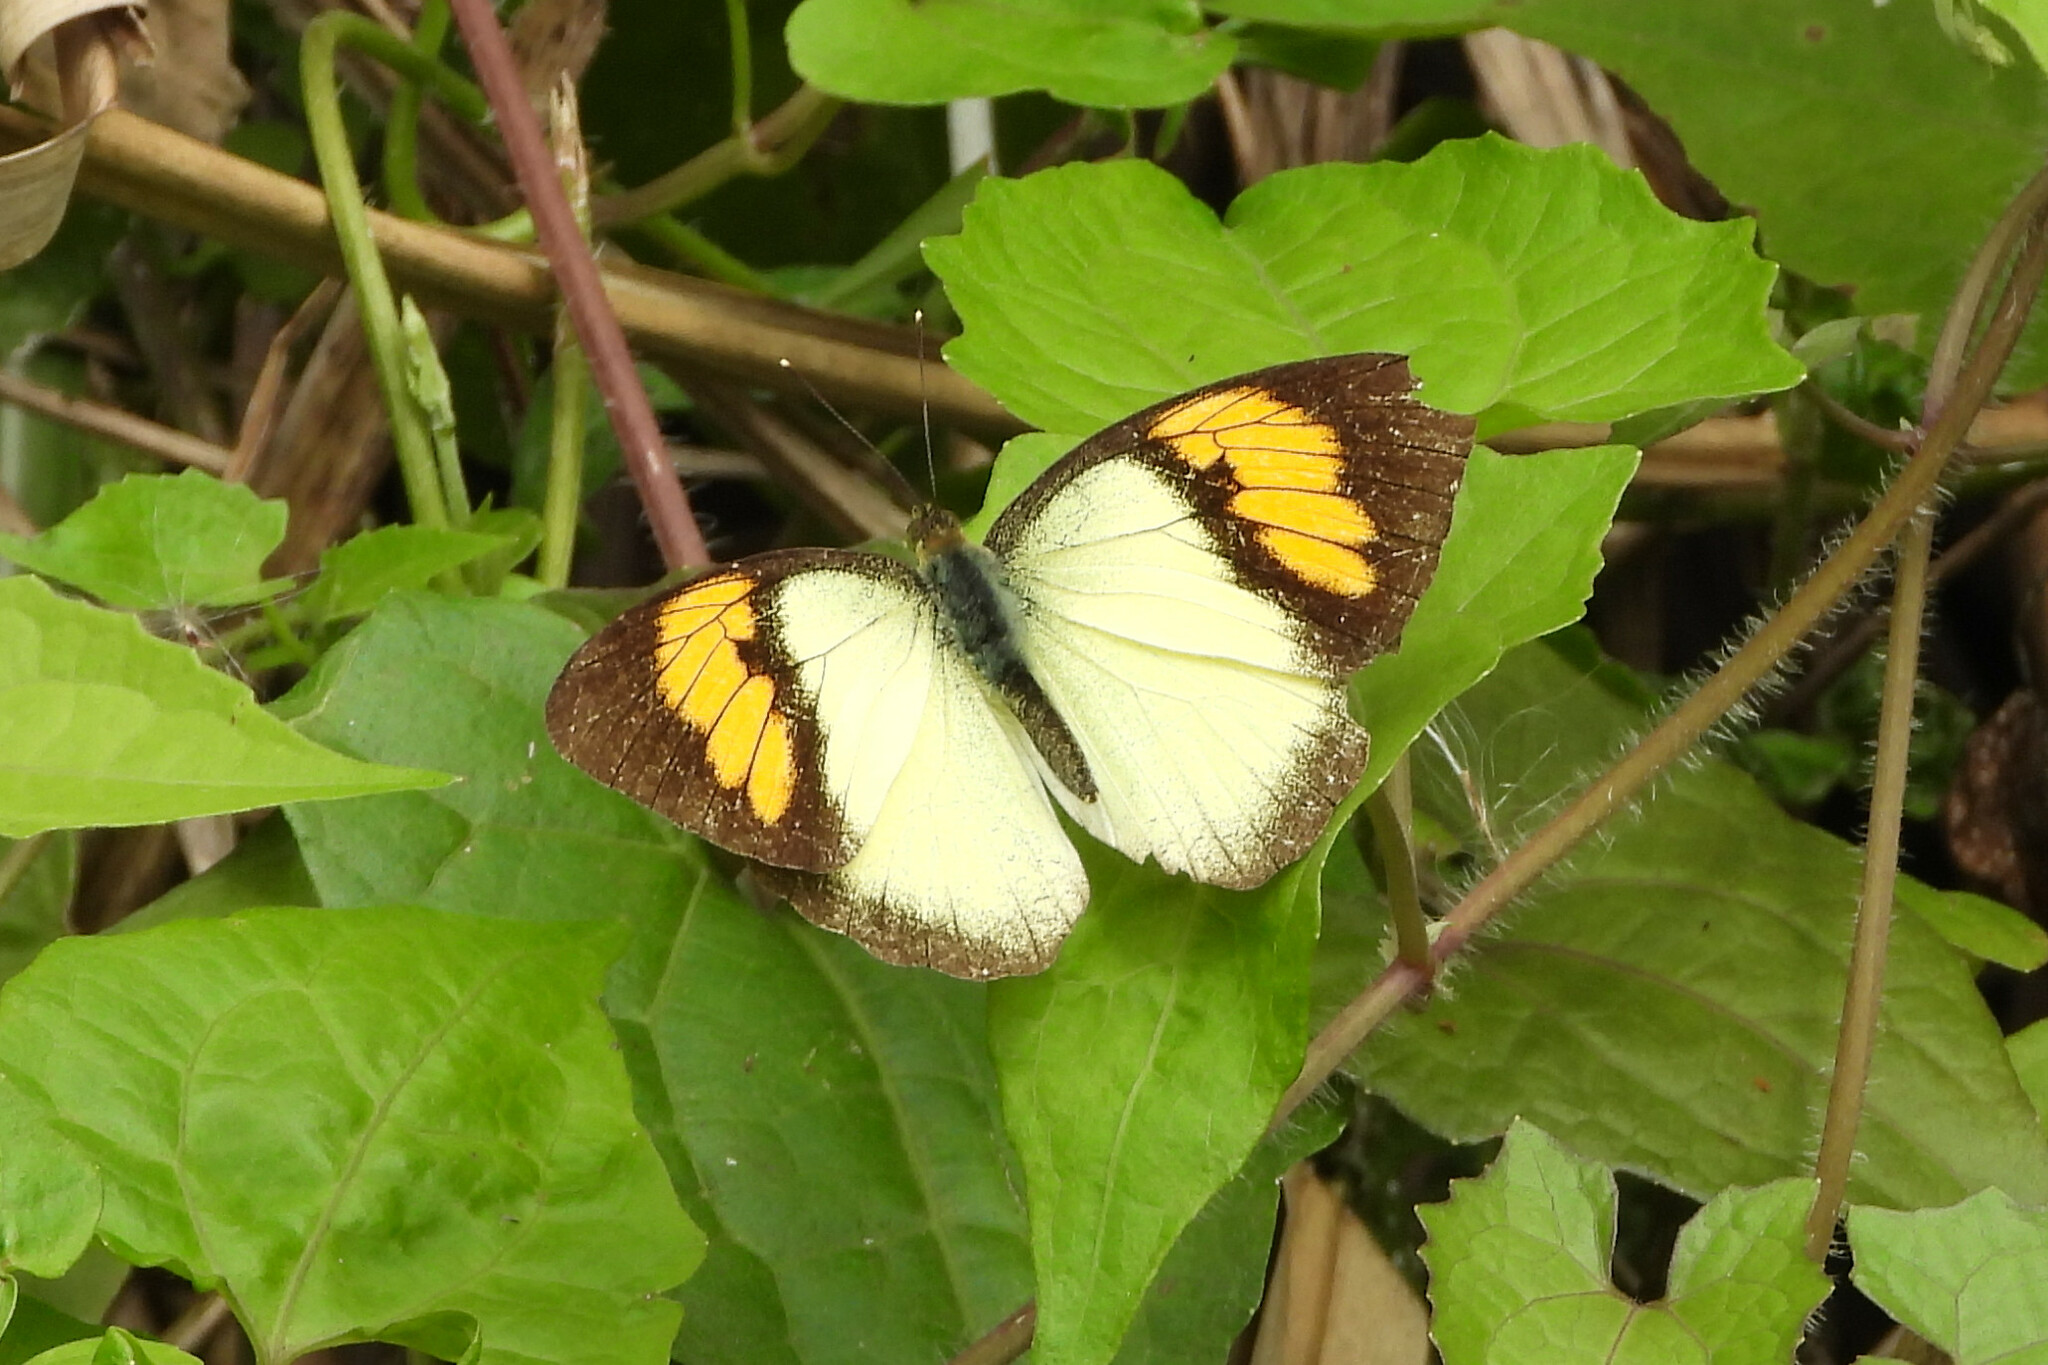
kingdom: Animalia
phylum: Arthropoda
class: Insecta
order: Lepidoptera
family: Pieridae
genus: Ixias
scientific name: Ixias pyrene
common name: Yellow orange tip
